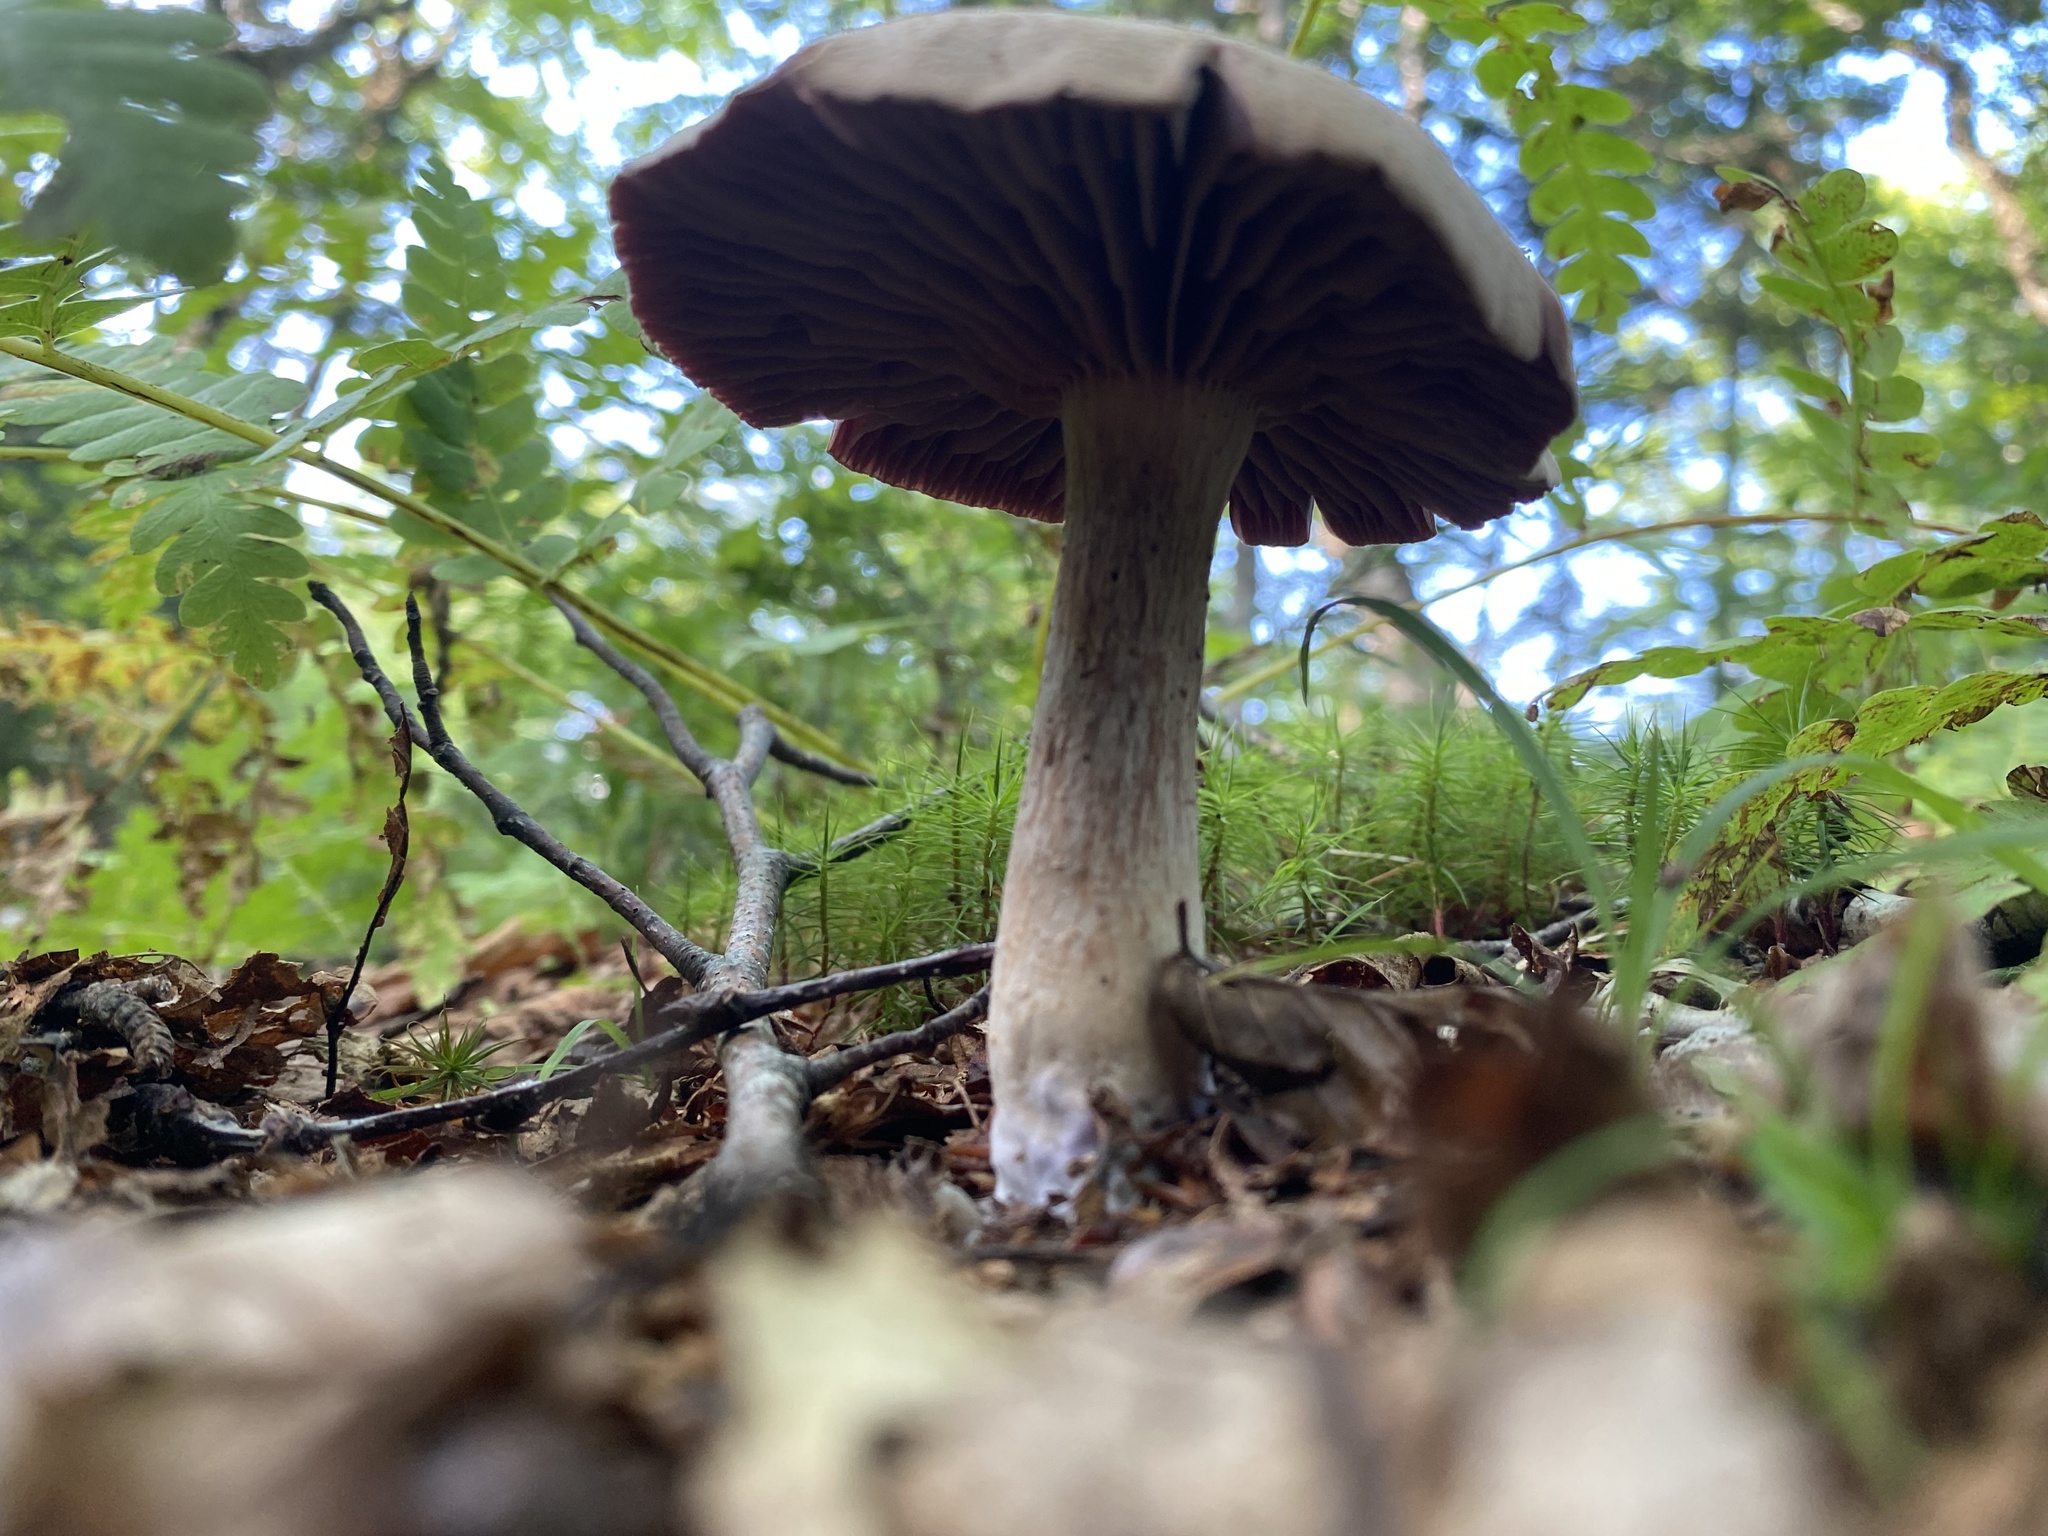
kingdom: Fungi
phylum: Basidiomycota
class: Agaricomycetes
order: Agaricales
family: Hydnangiaceae
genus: Laccaria
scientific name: Laccaria ochropurpurea
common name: Purple laccaria
